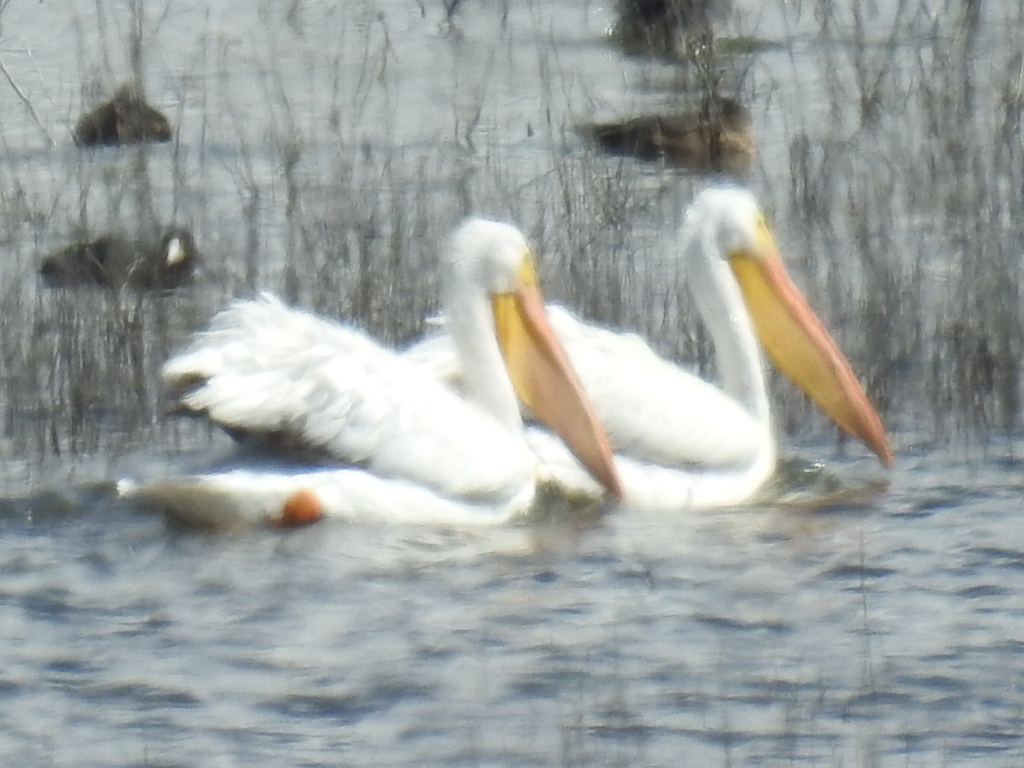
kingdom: Animalia
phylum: Chordata
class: Aves
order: Pelecaniformes
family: Pelecanidae
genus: Pelecanus
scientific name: Pelecanus erythrorhynchos
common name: American white pelican
